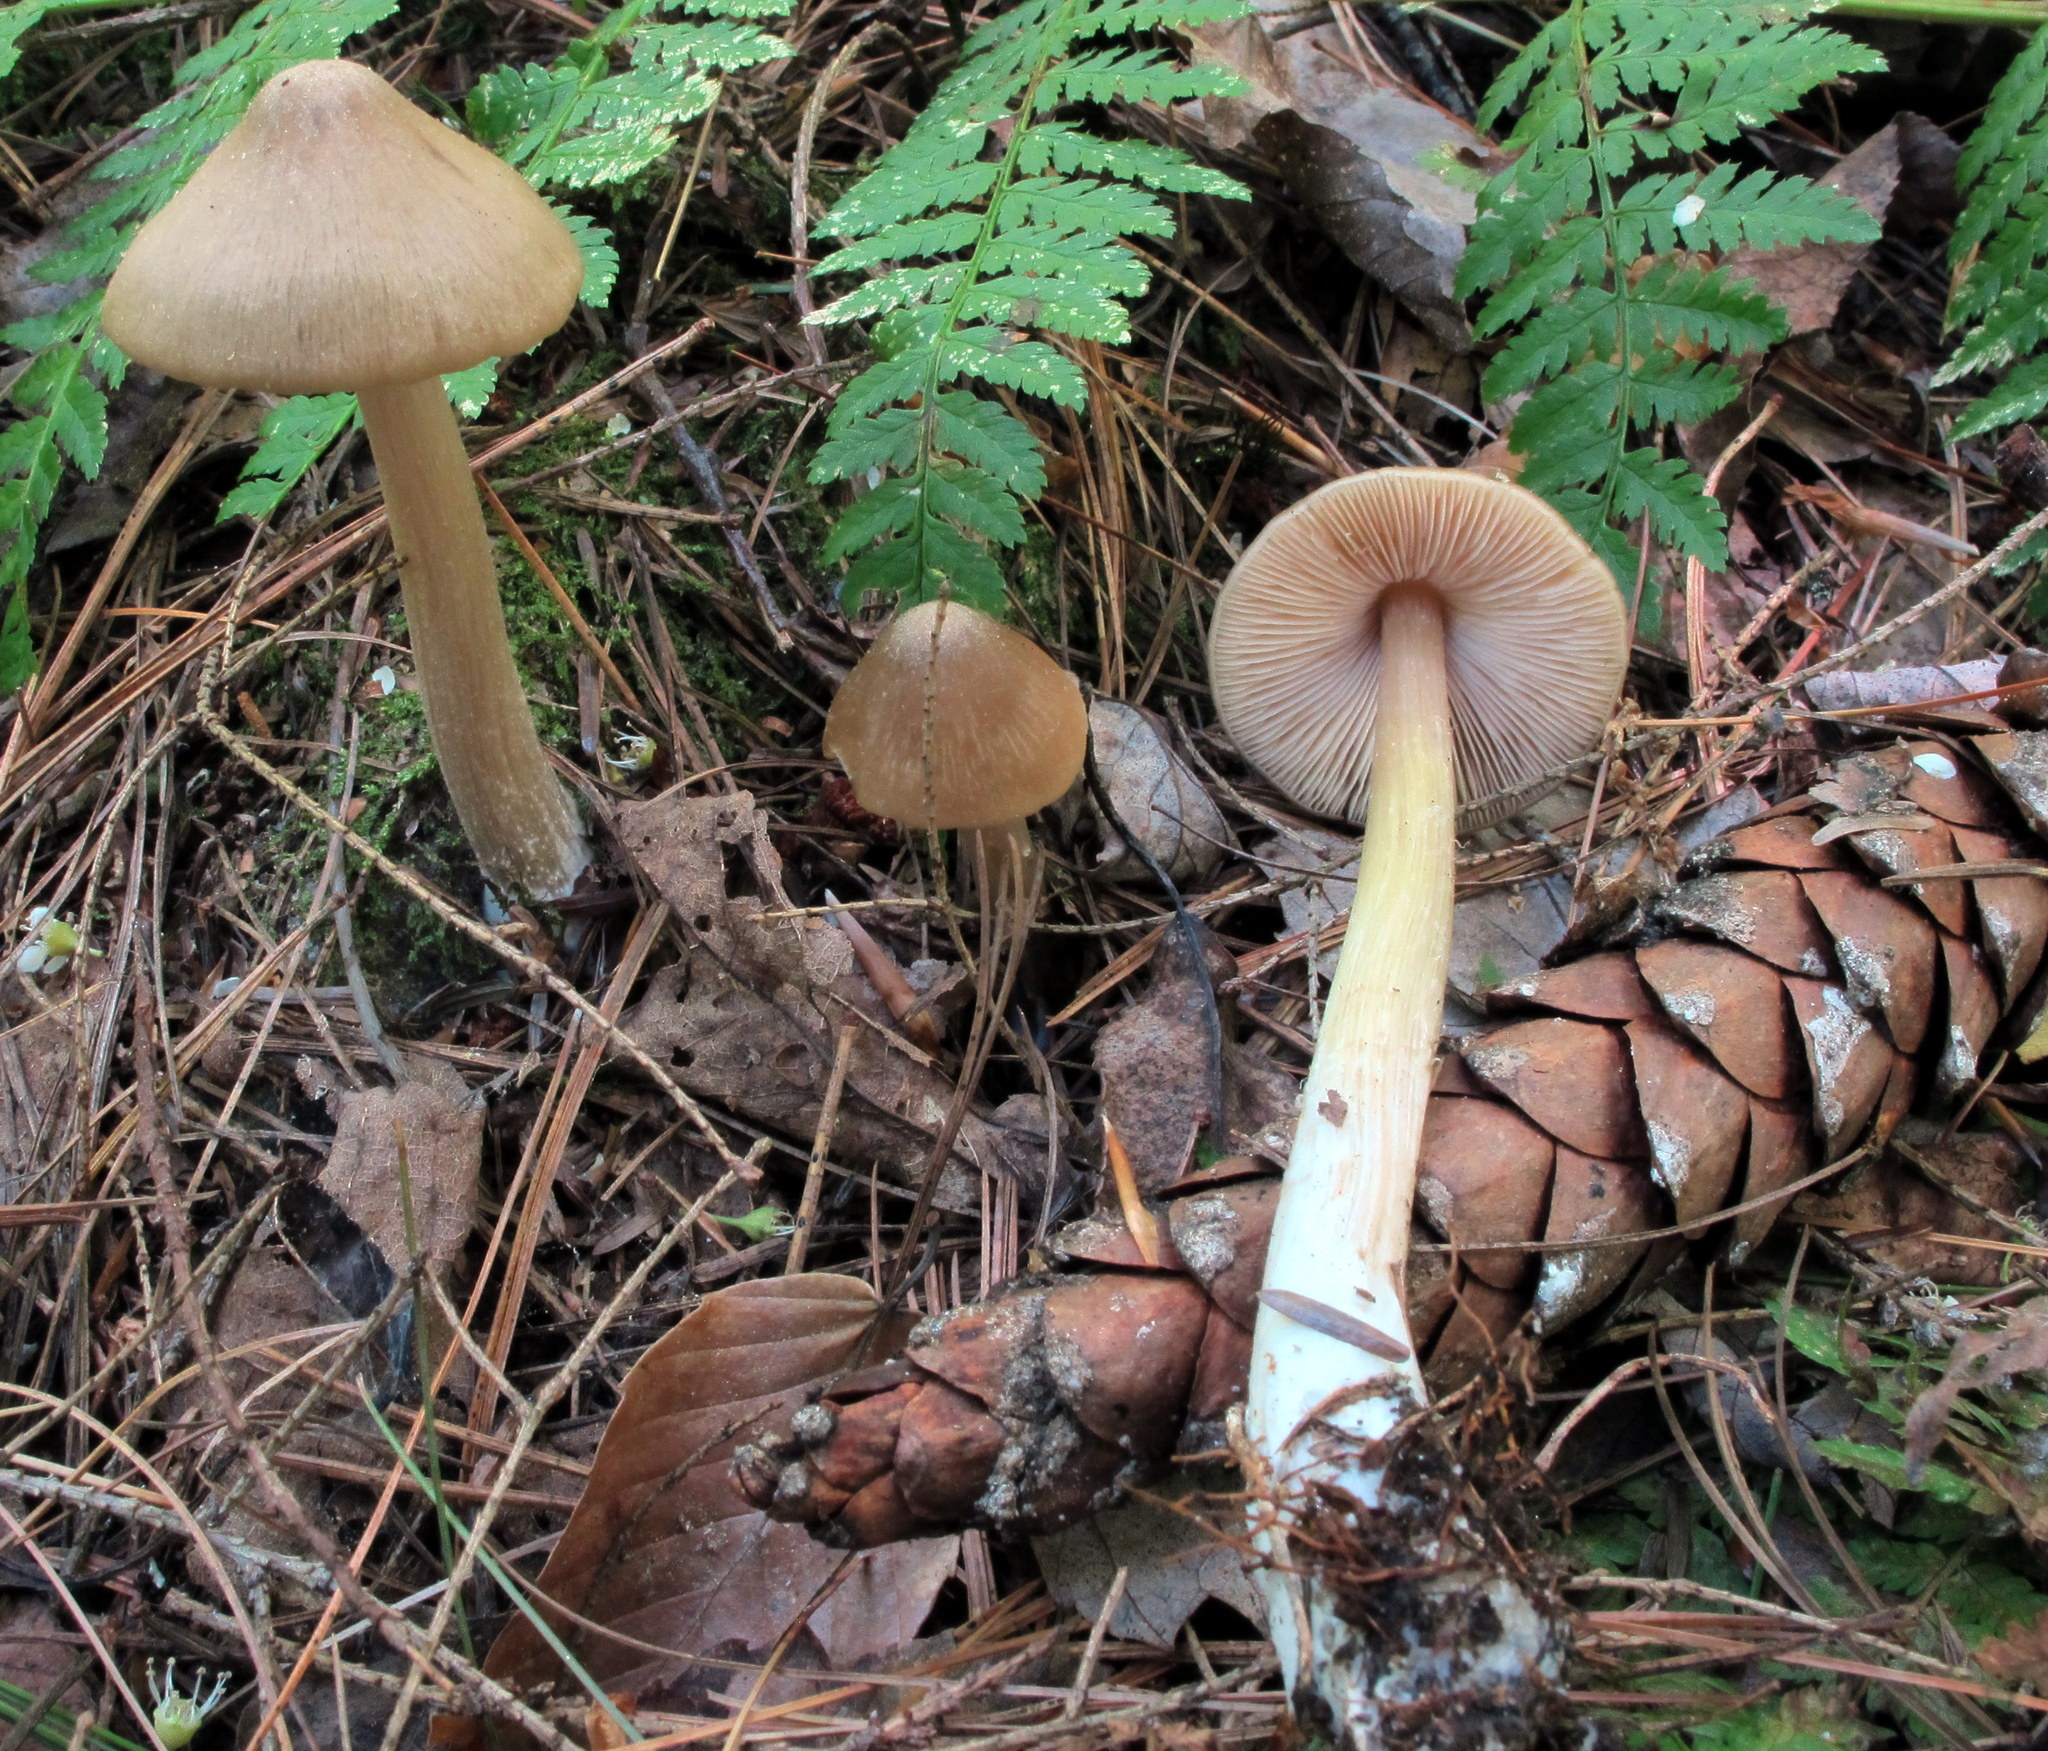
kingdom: Fungi
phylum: Basidiomycota
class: Agaricomycetes
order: Agaricales
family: Entolomataceae
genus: Entoloma
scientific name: Entoloma strictius
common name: Straight-stalked entoloma
